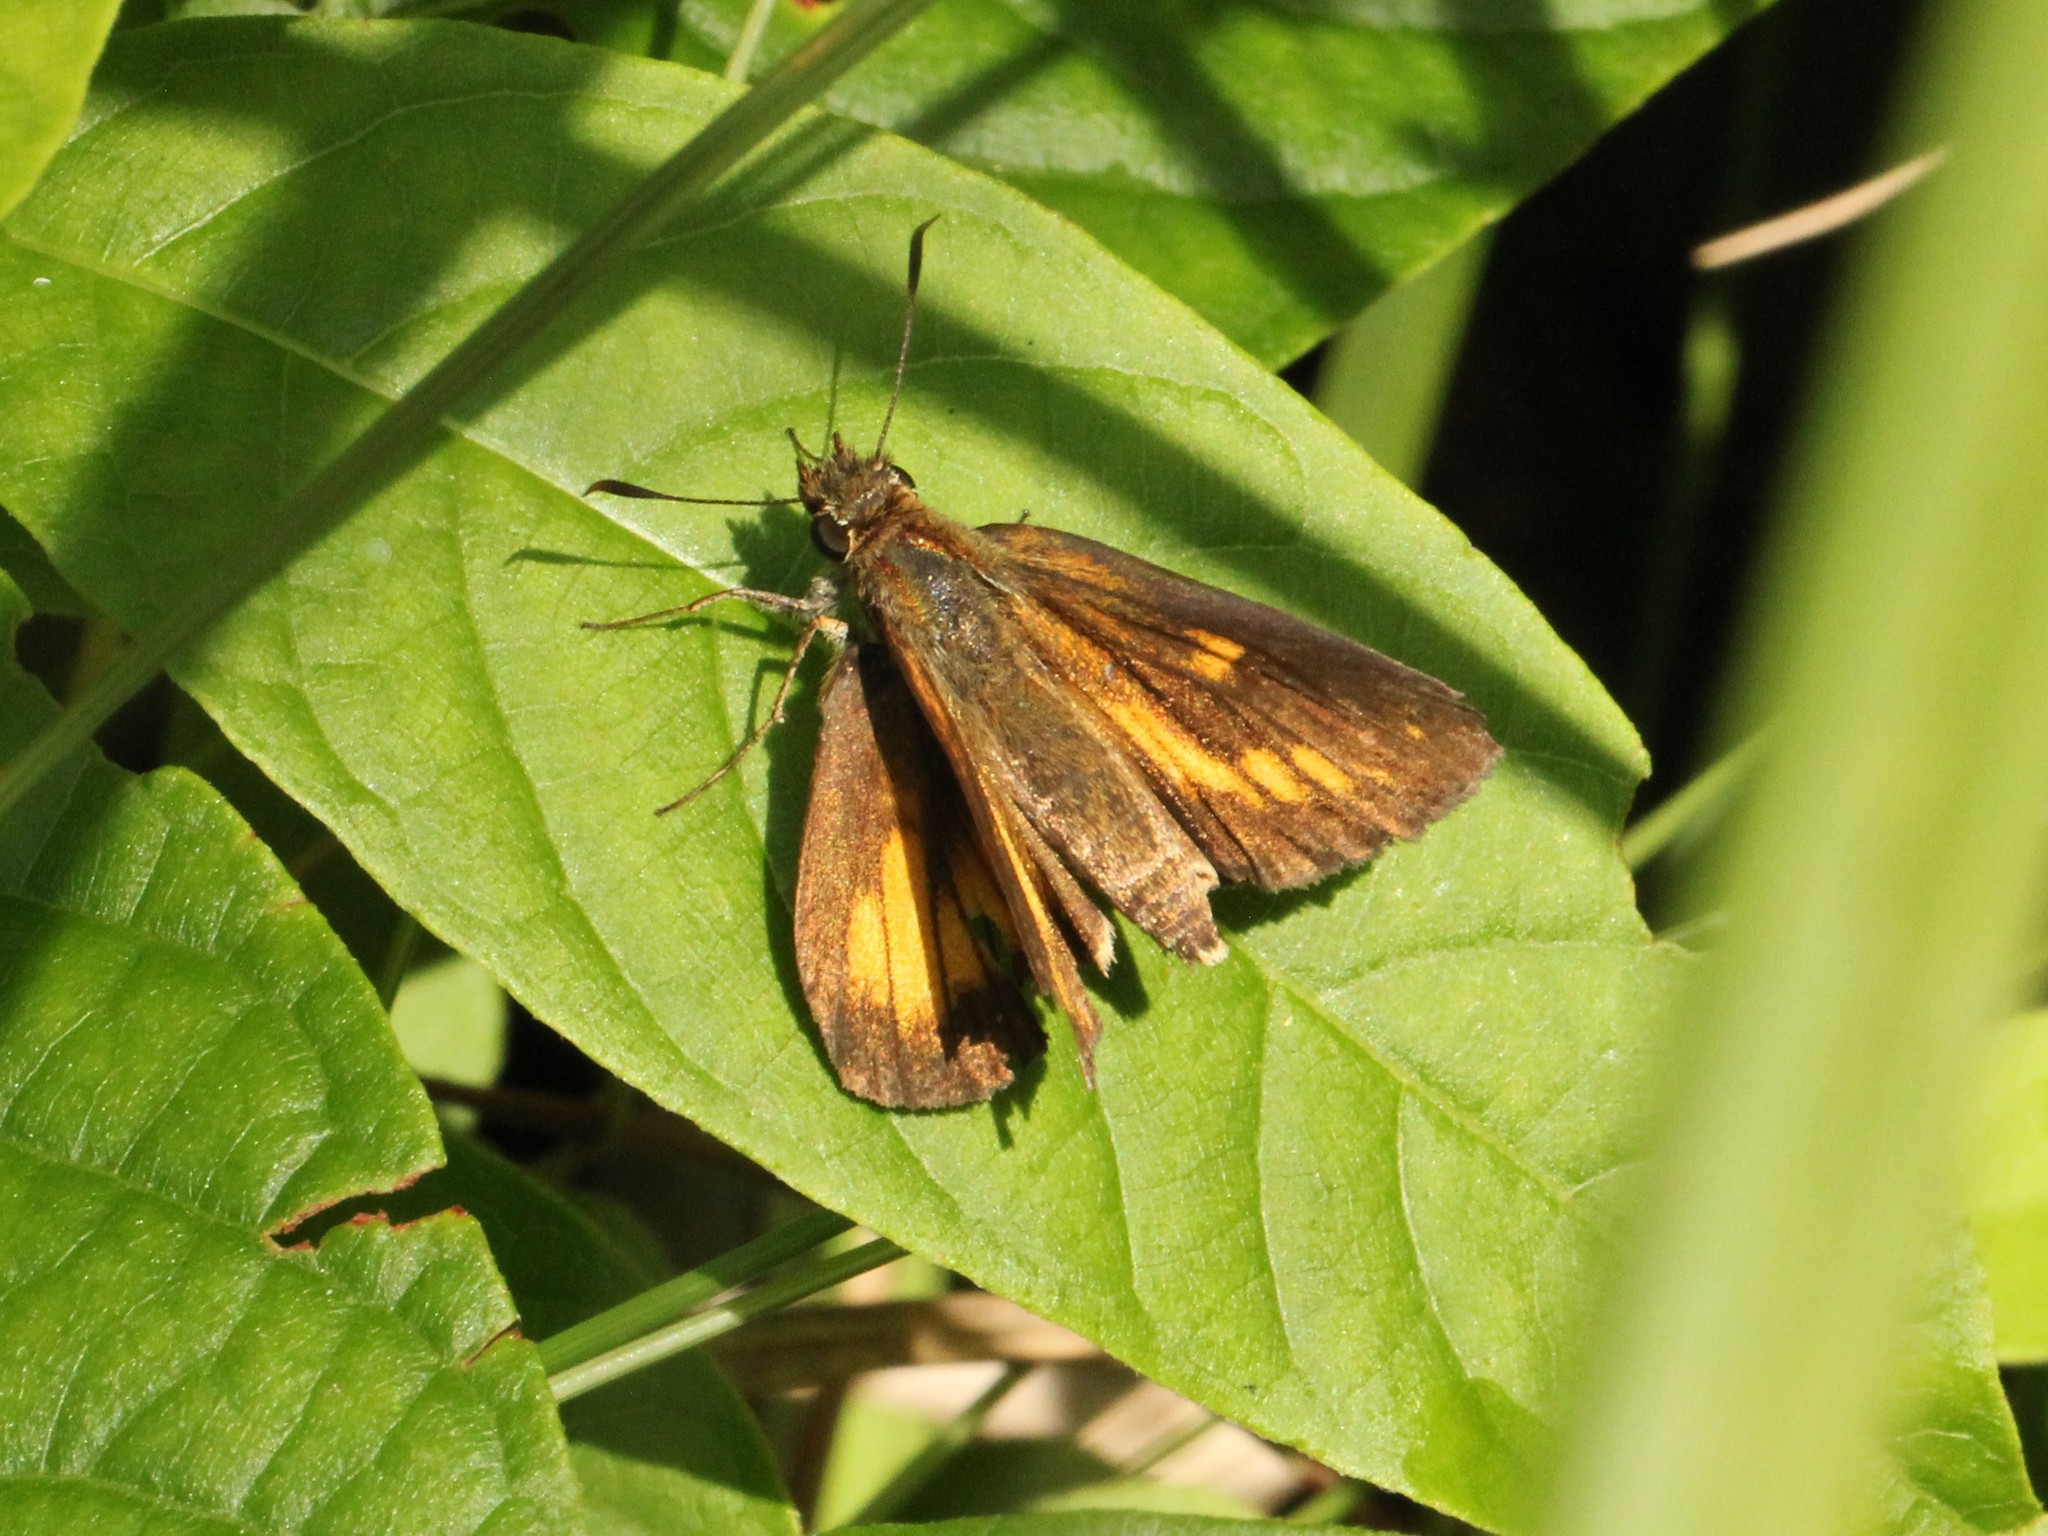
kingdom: Animalia
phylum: Arthropoda
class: Insecta
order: Lepidoptera
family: Hesperiidae
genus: Poanes
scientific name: Poanes viator
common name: Broad-winged skipper
